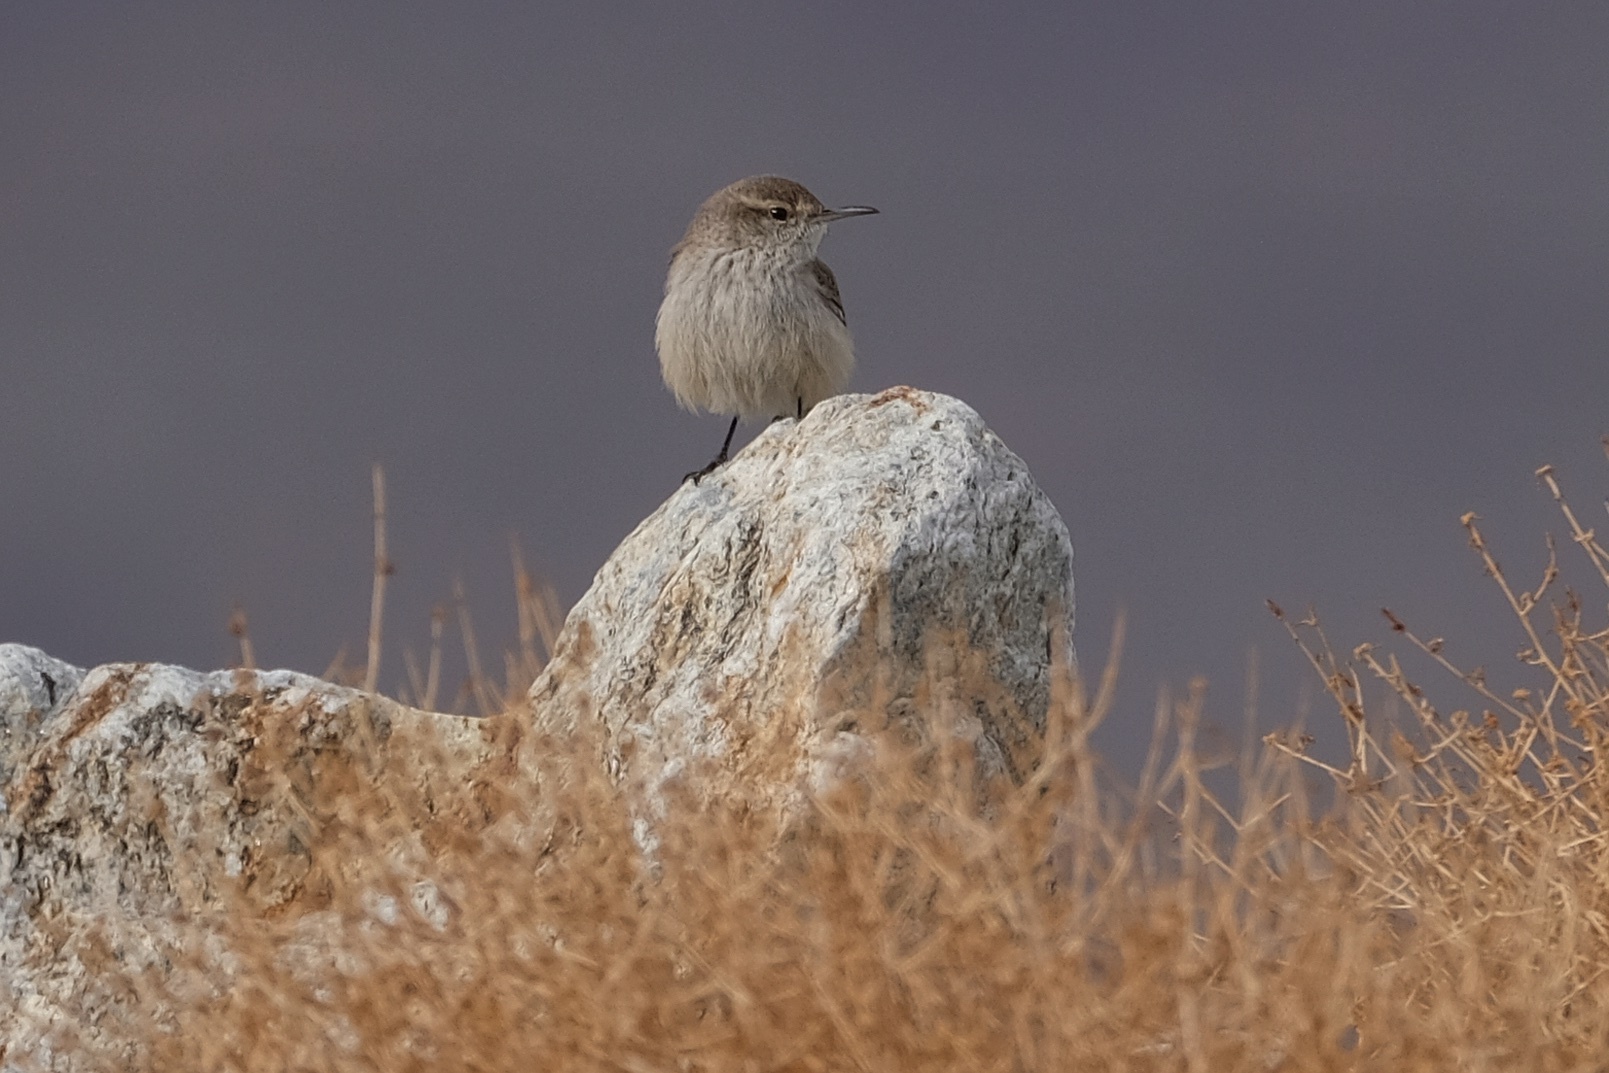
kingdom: Animalia
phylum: Chordata
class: Aves
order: Passeriformes
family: Troglodytidae
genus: Salpinctes
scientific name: Salpinctes obsoletus
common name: Rock wren
